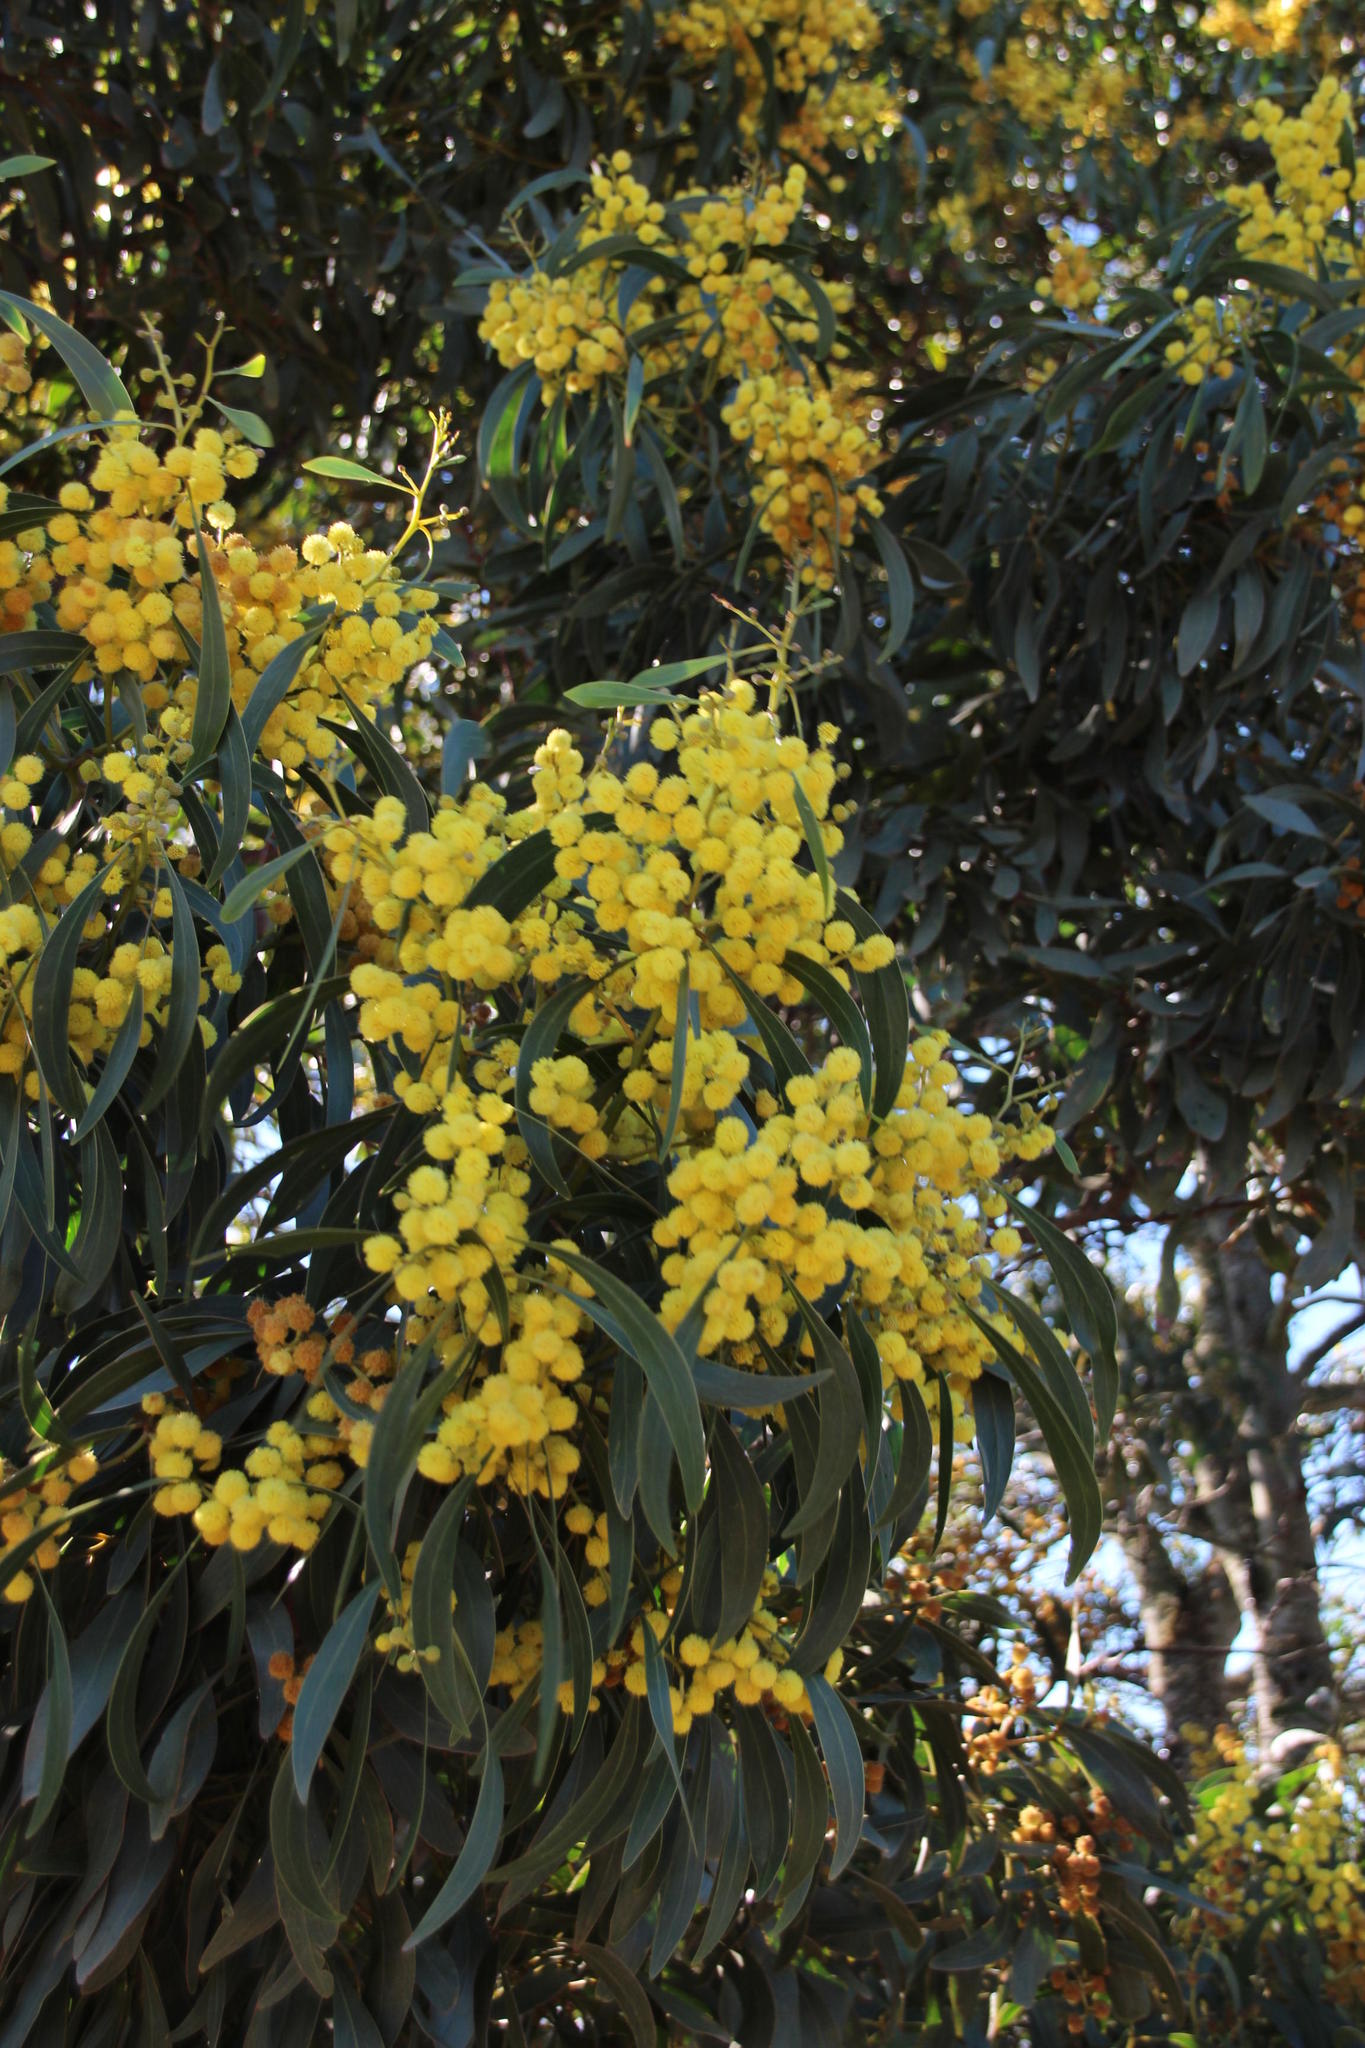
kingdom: Plantae
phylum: Tracheophyta
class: Magnoliopsida
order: Fabales
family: Fabaceae
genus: Acacia
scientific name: Acacia pycnantha
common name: Golden wattle
